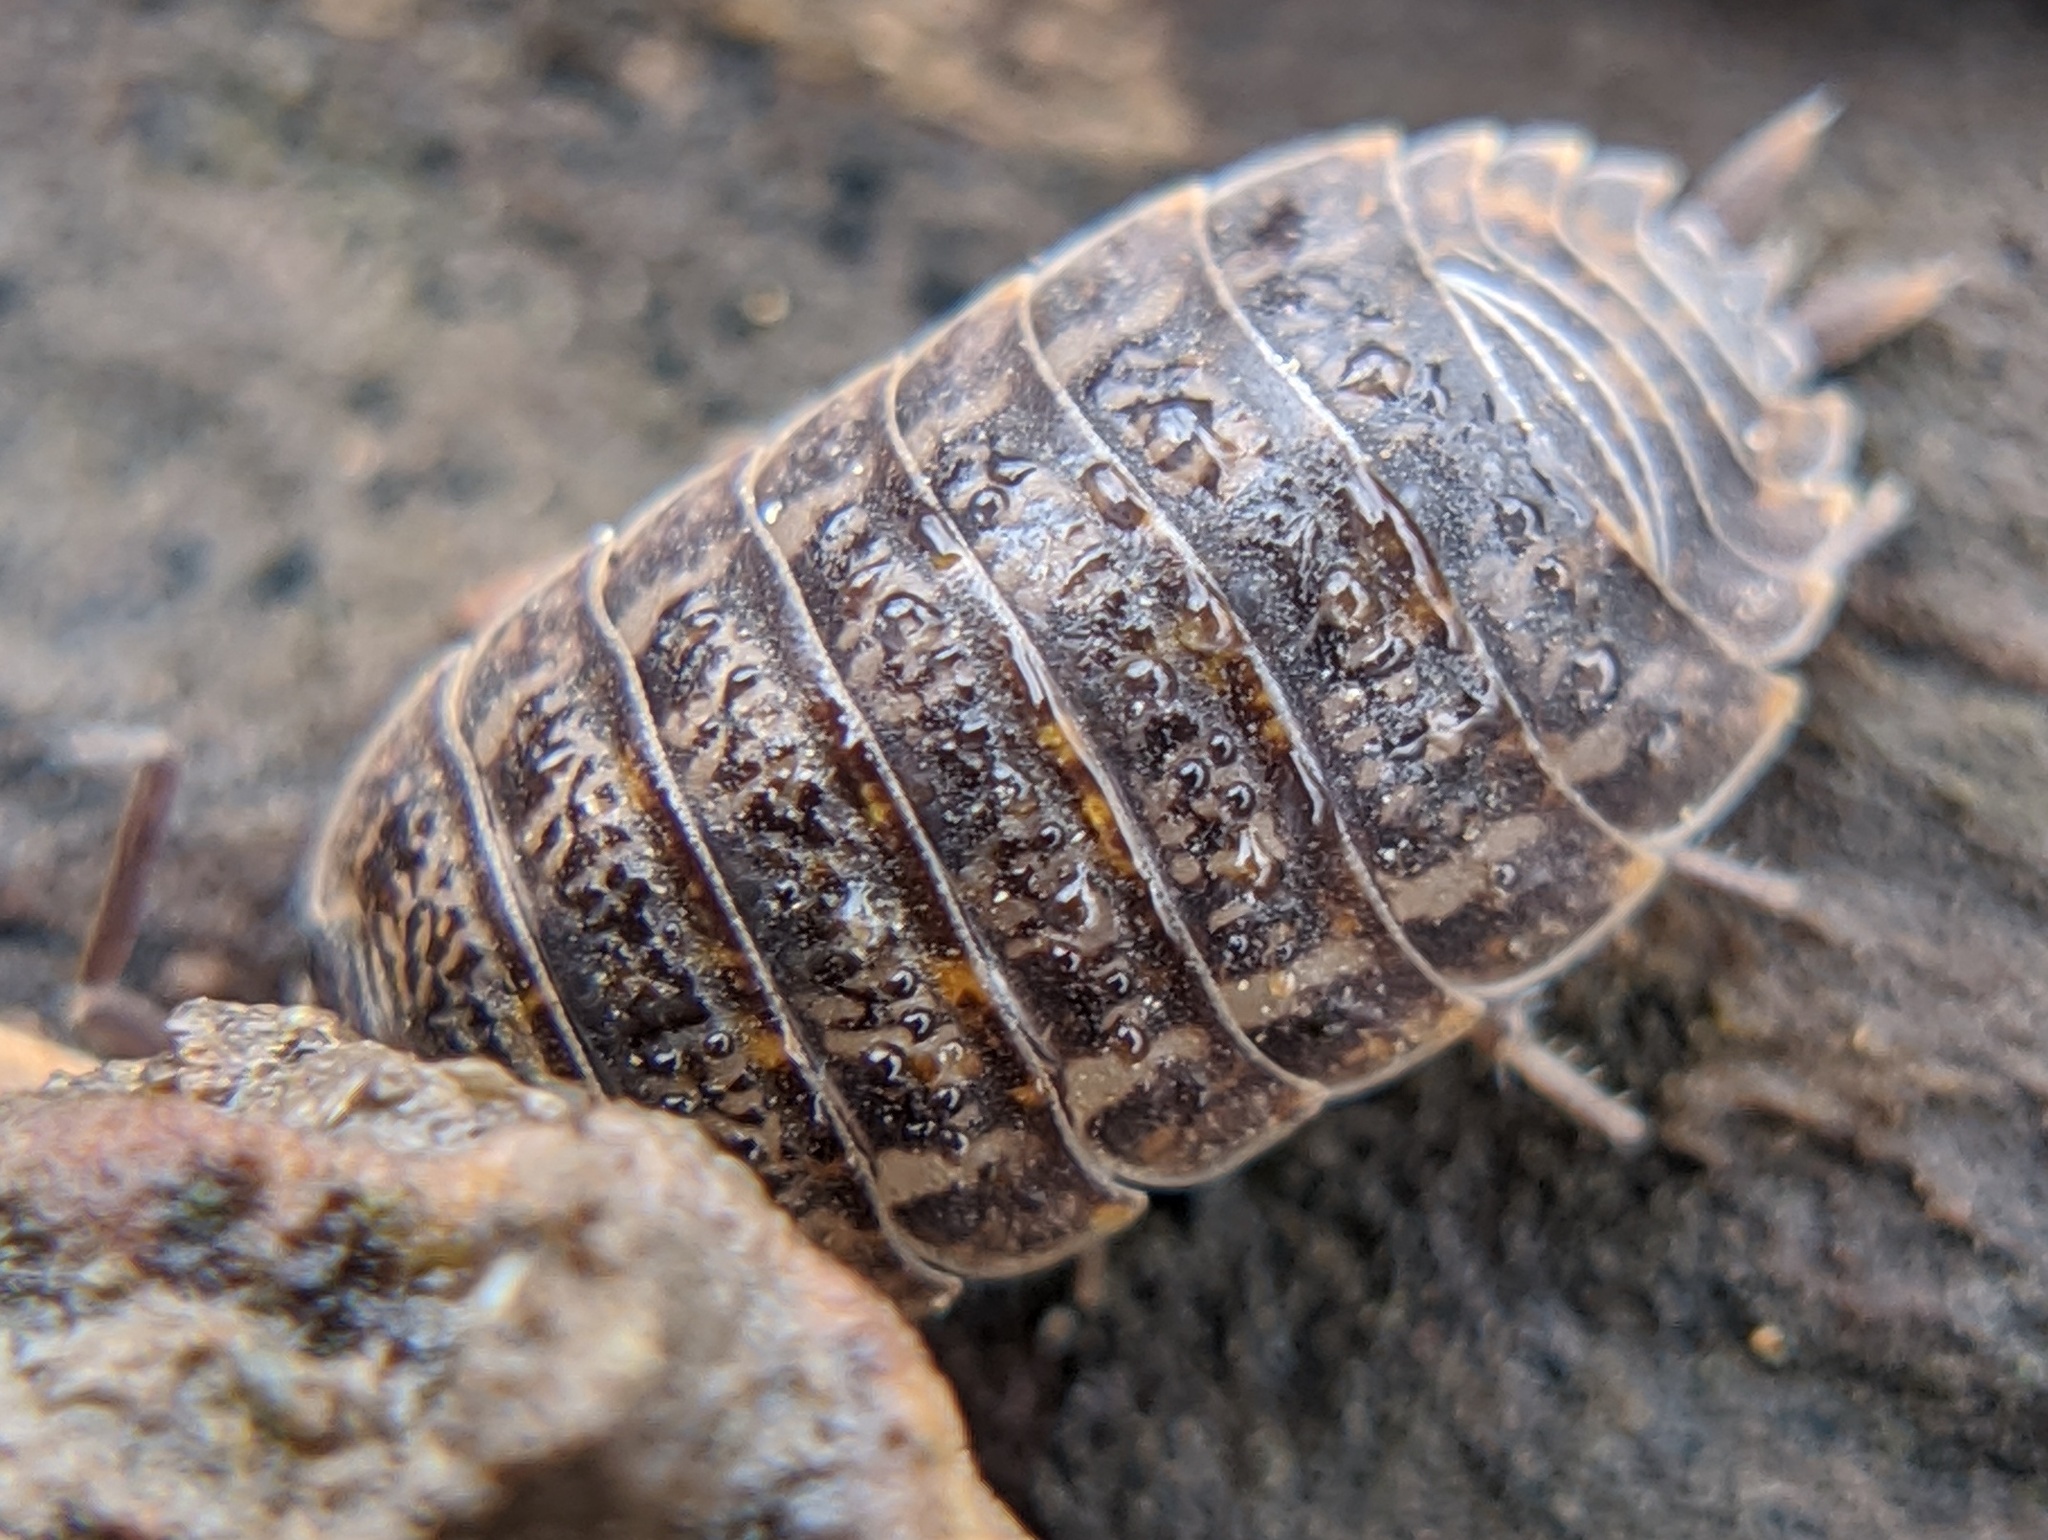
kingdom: Animalia
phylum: Arthropoda
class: Malacostraca
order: Isopoda
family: Trachelipodidae
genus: Trachelipus
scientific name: Trachelipus rathkii
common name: Isopod
